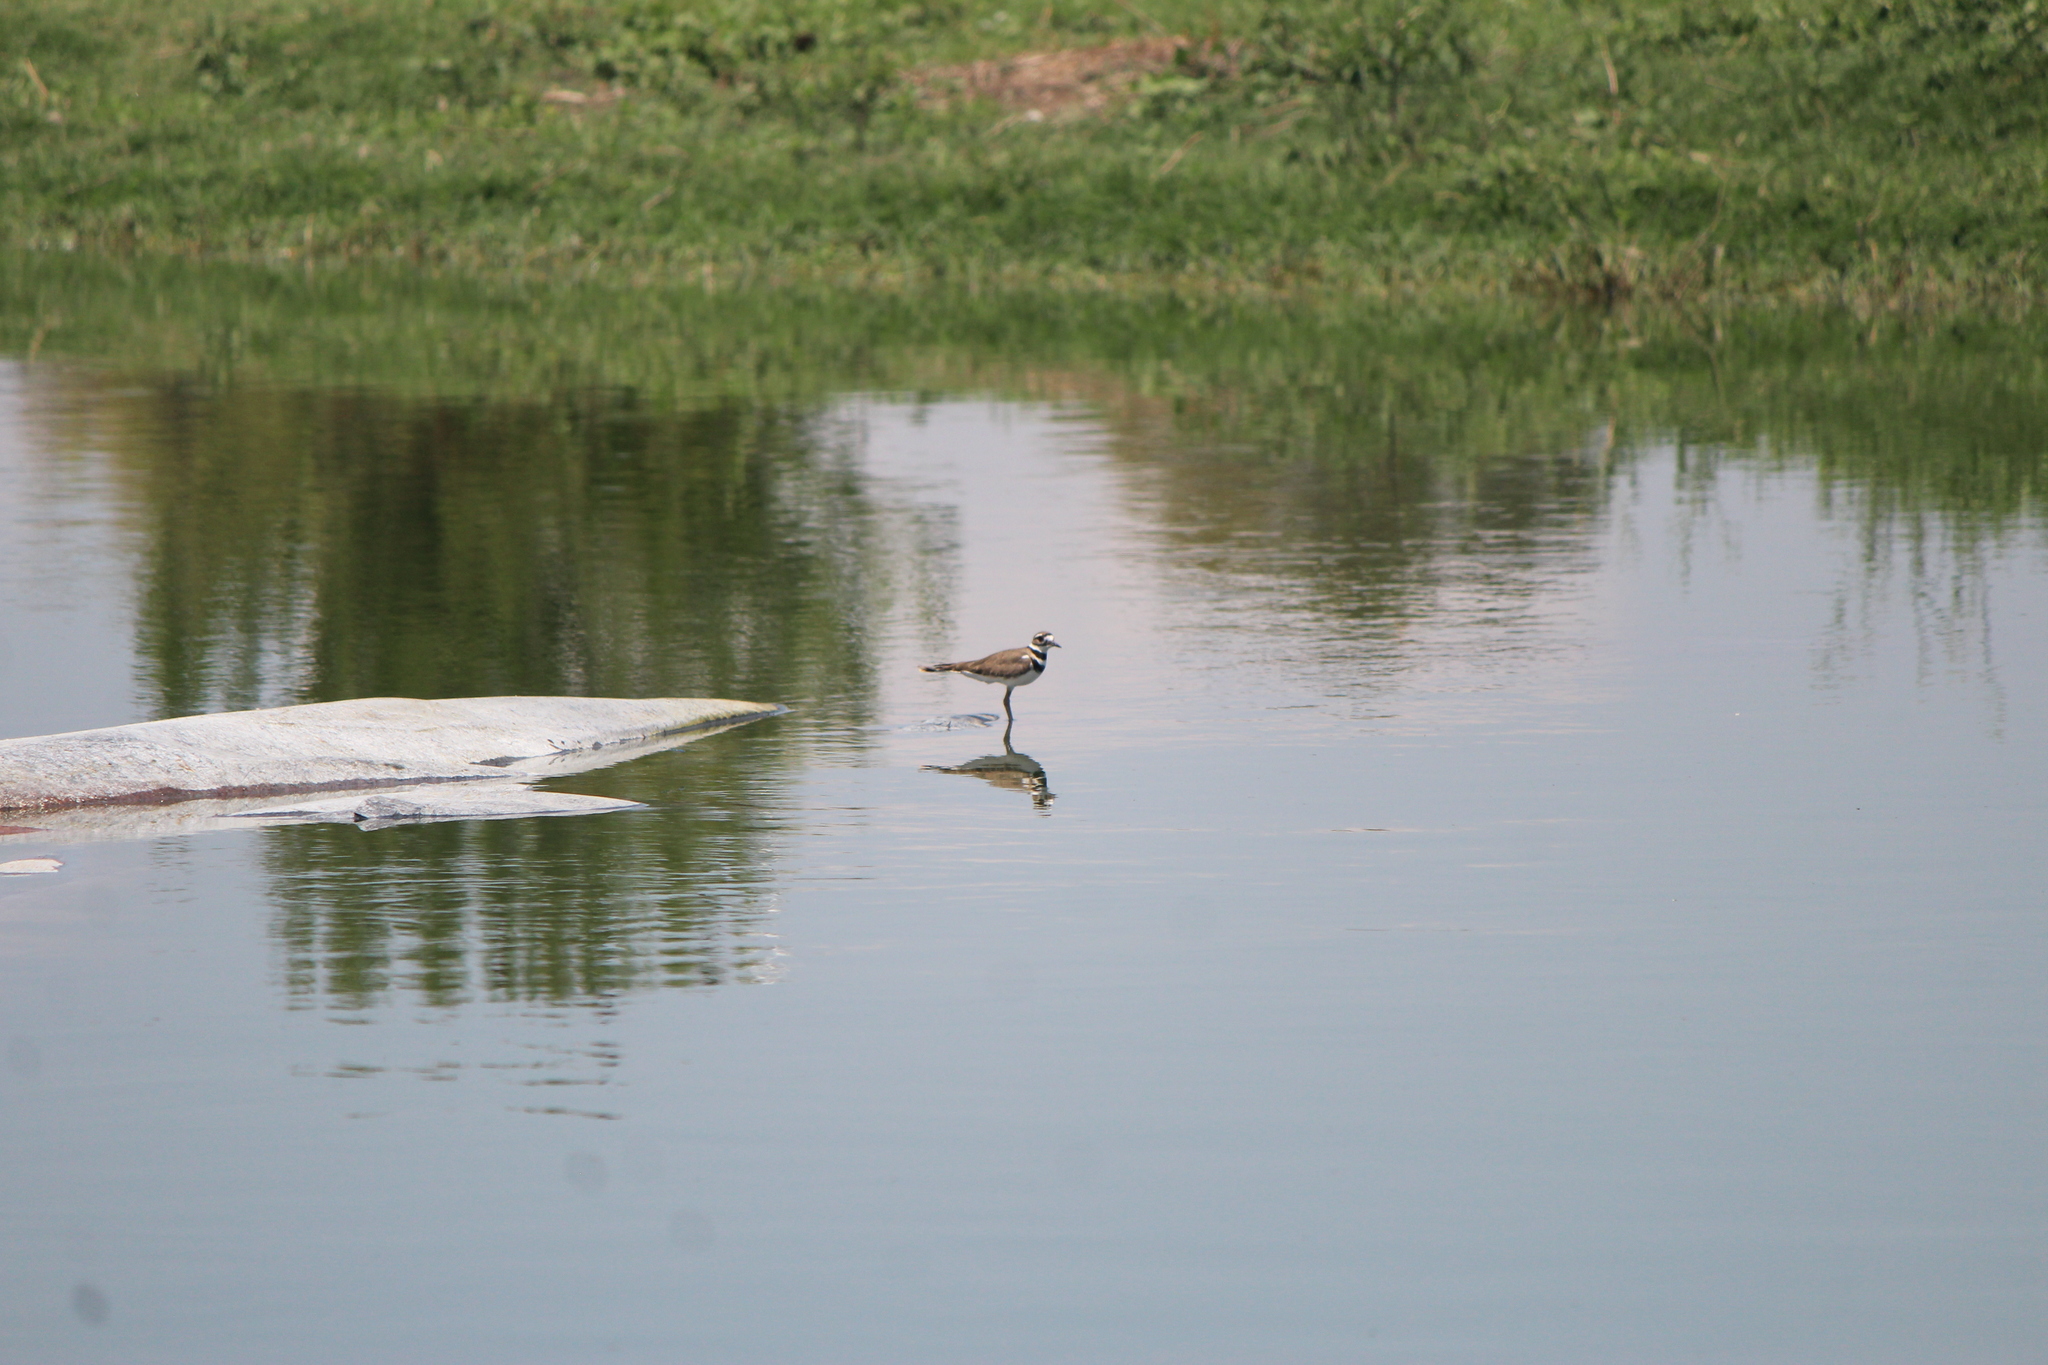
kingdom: Animalia
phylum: Chordata
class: Aves
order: Charadriiformes
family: Charadriidae
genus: Charadrius
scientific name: Charadrius vociferus
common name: Killdeer
